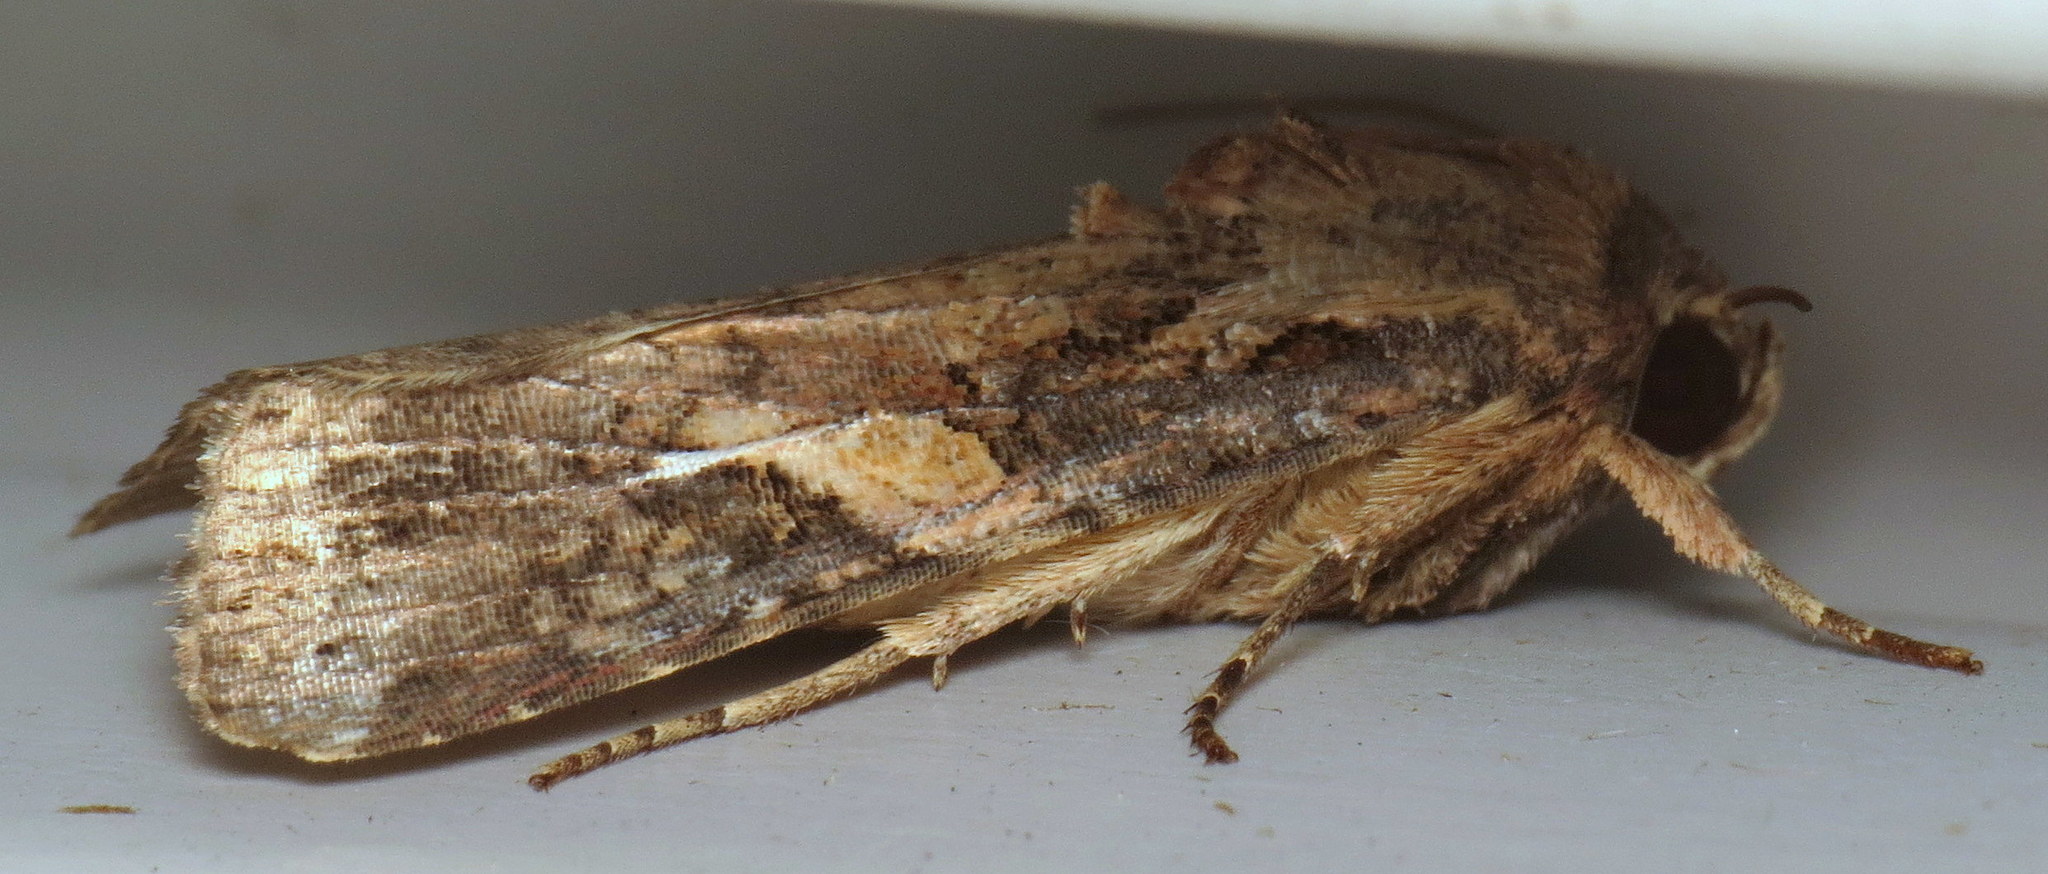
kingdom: Animalia
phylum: Arthropoda
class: Insecta
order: Lepidoptera
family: Noctuidae
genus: Spodoptera
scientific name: Spodoptera frugiperda
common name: Fall armyworm
